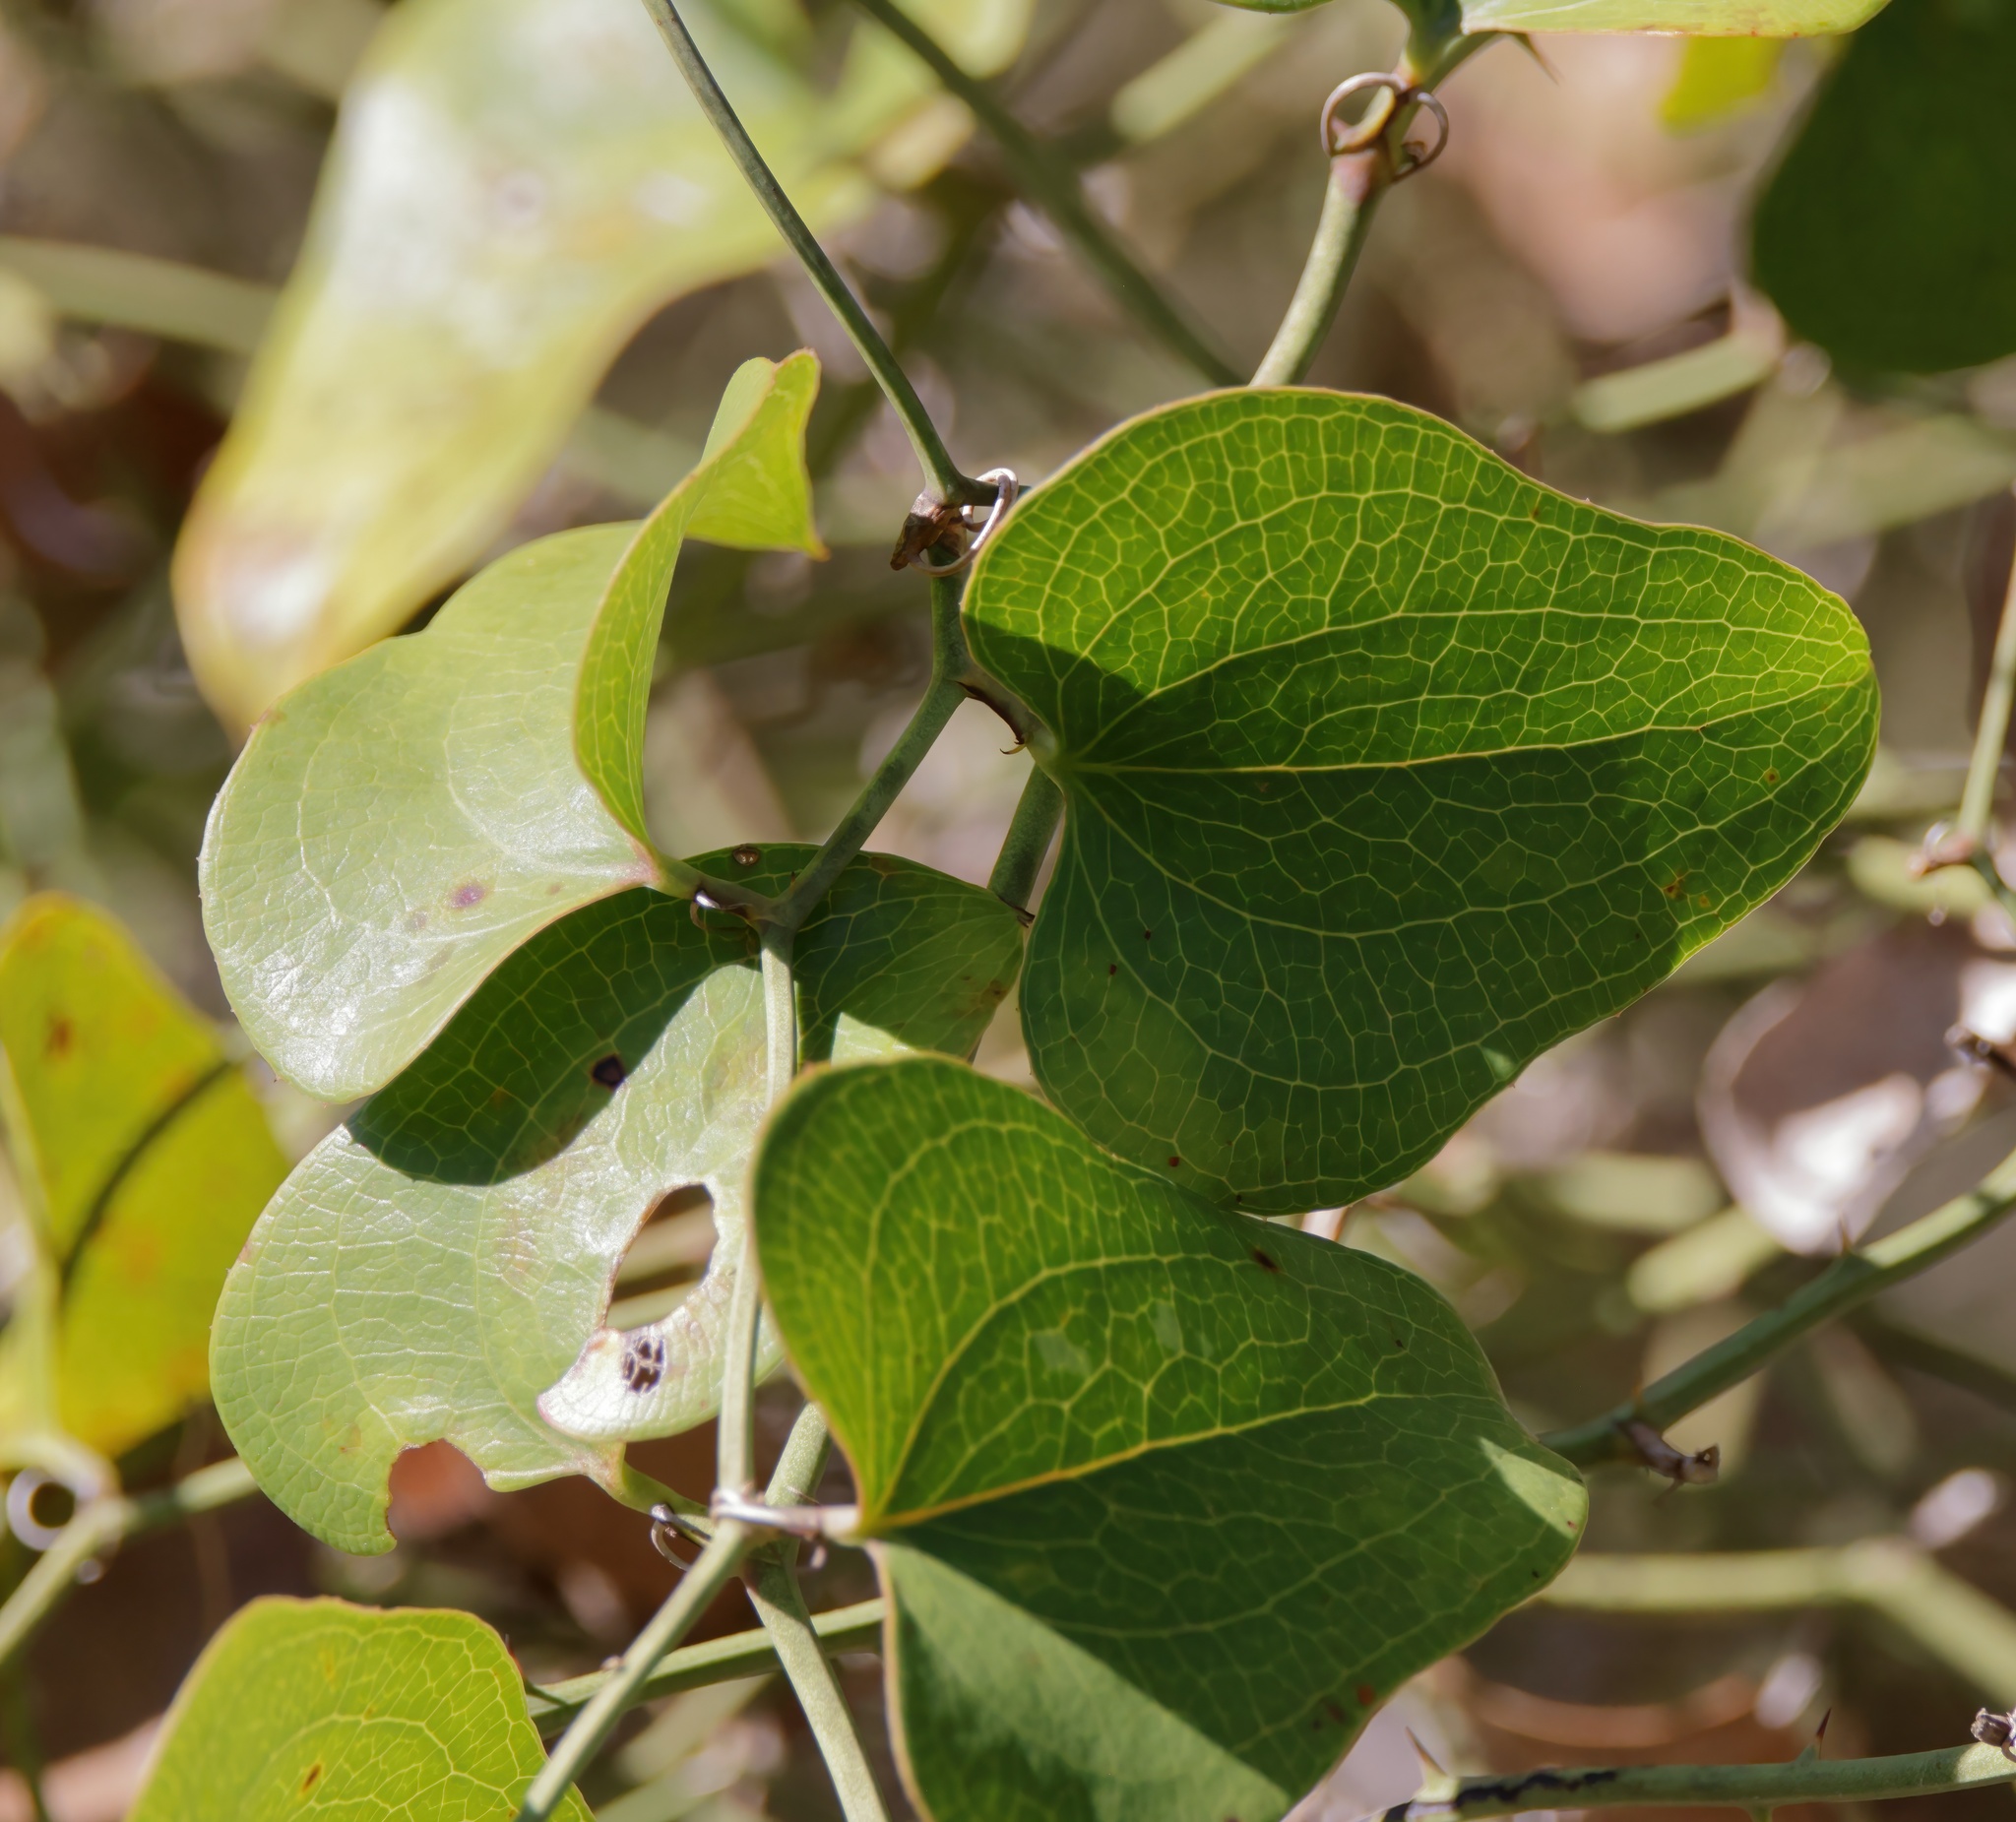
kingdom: Plantae
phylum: Tracheophyta
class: Liliopsida
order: Liliales
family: Smilacaceae
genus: Smilax
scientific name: Smilax bona-nox
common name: Catbrier
